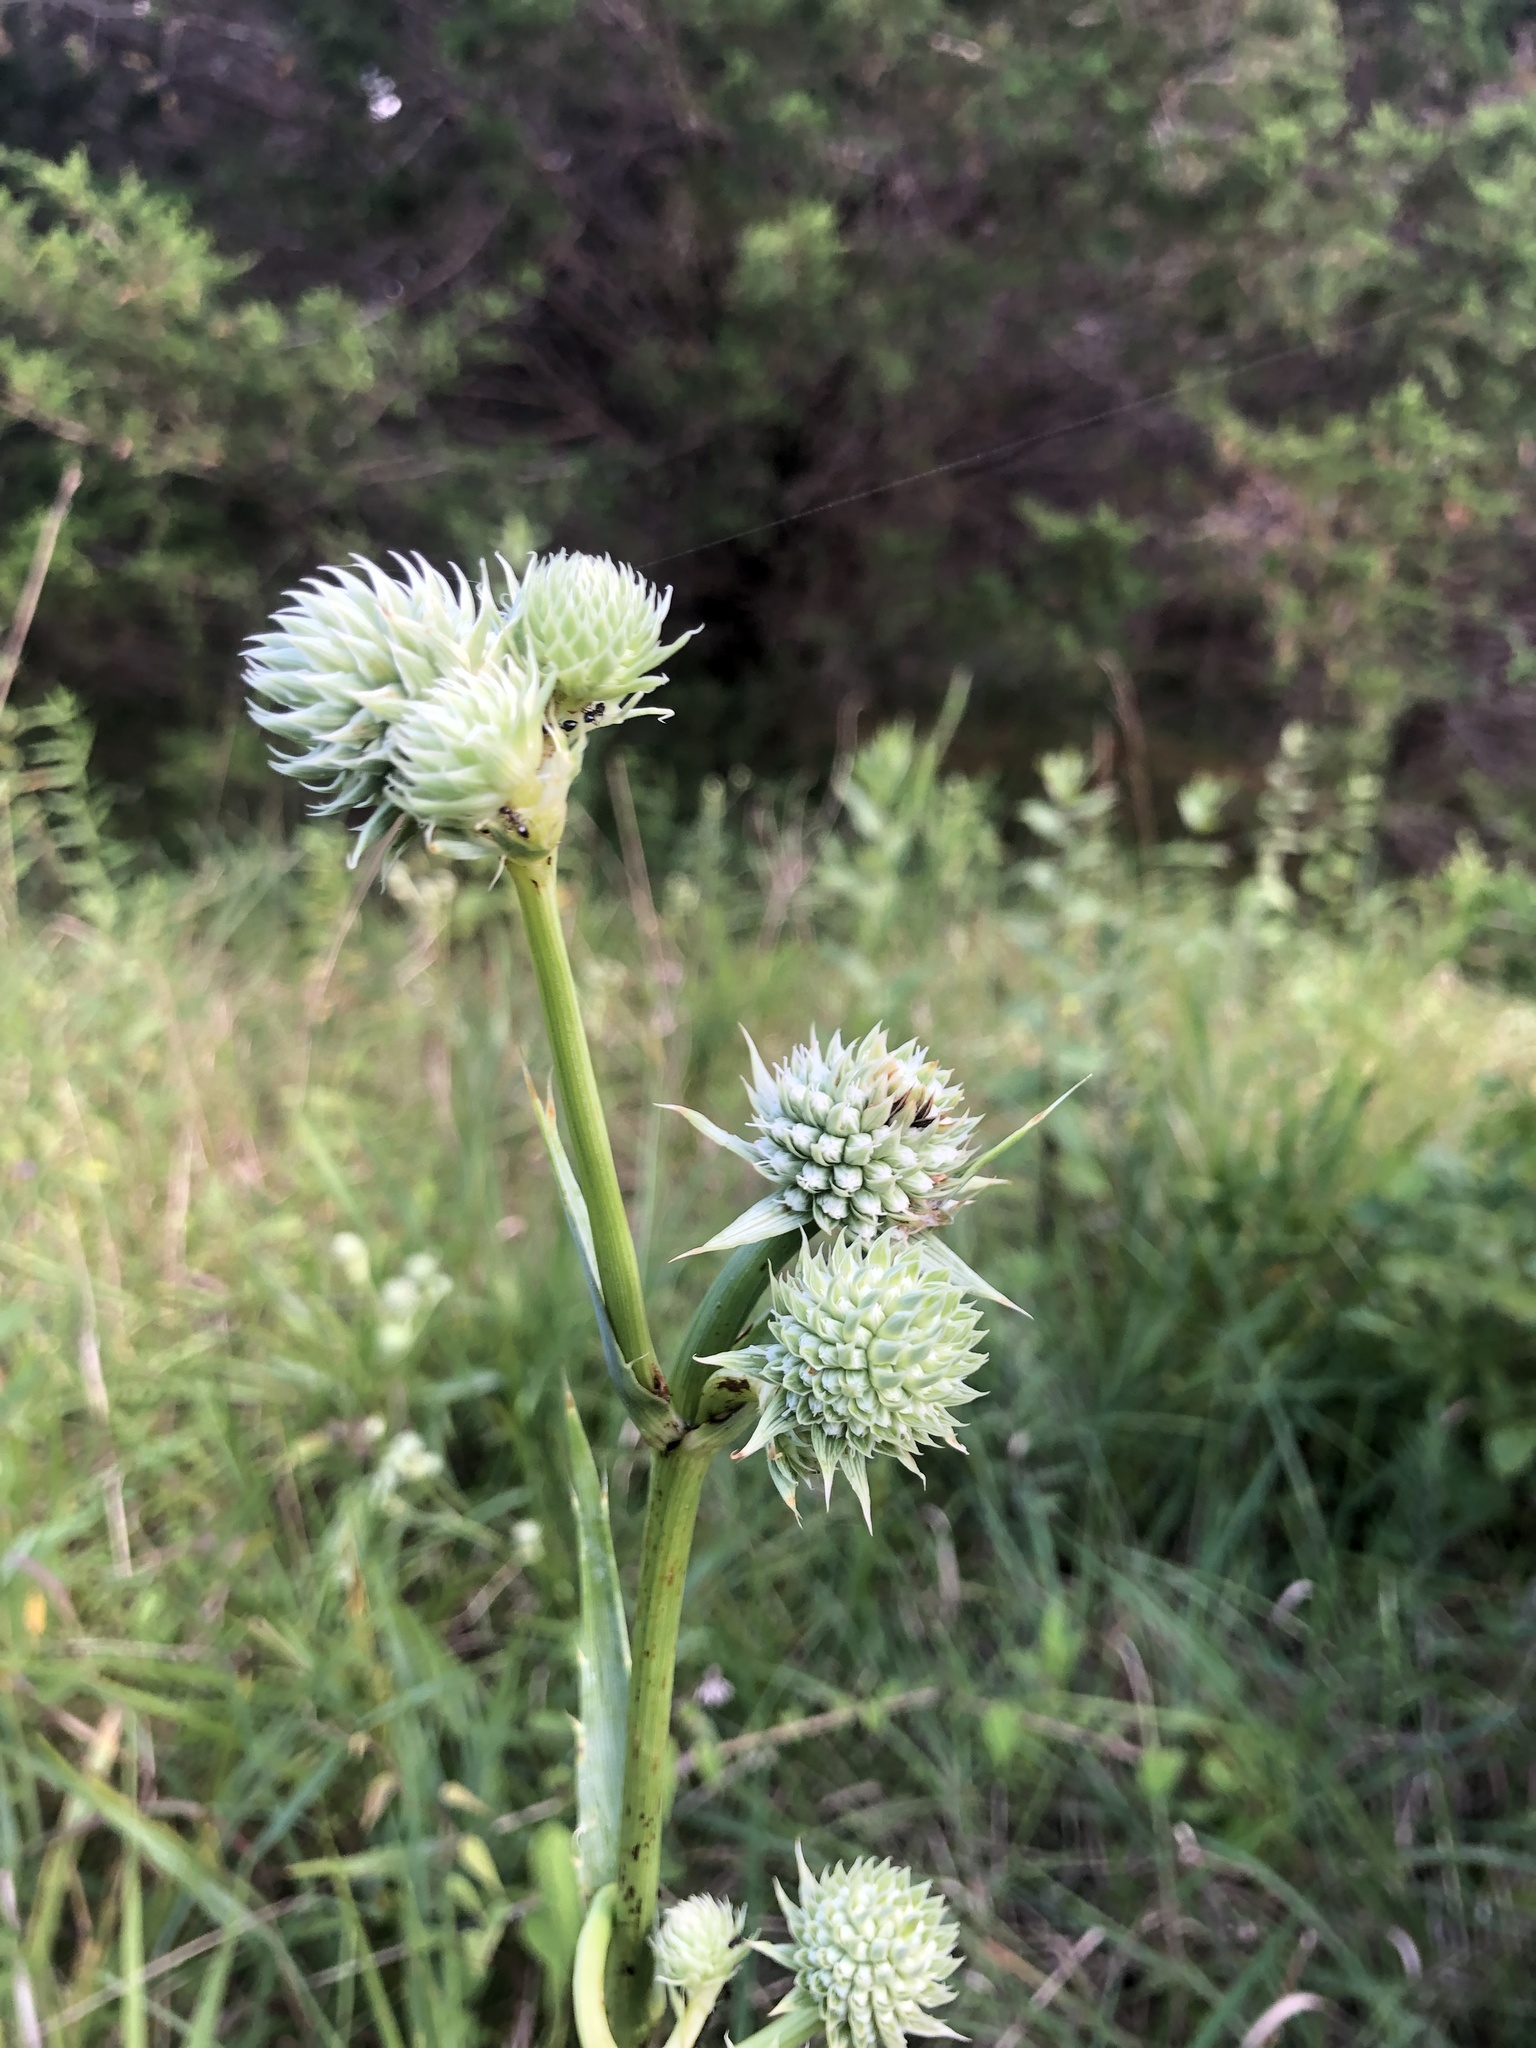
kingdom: Plantae
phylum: Tracheophyta
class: Magnoliopsida
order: Apiales
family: Apiaceae
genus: Eryngium
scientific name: Eryngium yuccifolium
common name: Button eryngo
